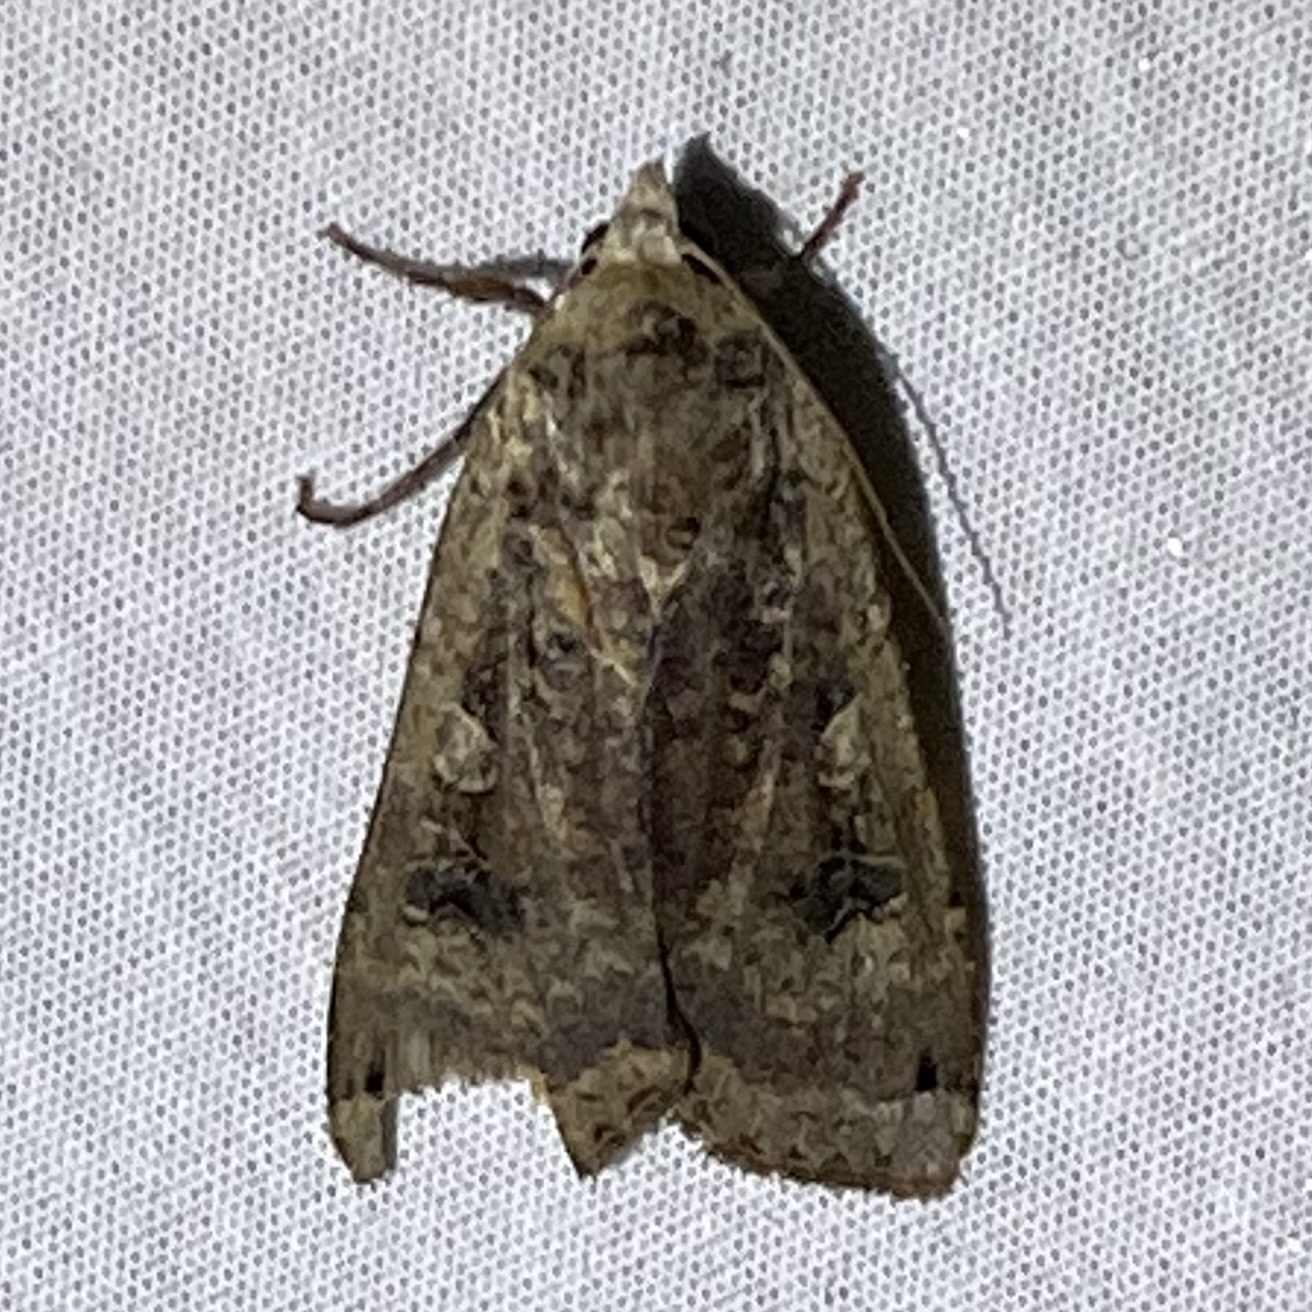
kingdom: Animalia
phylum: Arthropoda
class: Insecta
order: Lepidoptera
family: Noctuidae
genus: Noctua
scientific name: Noctua pronuba
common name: Large yellow underwing
